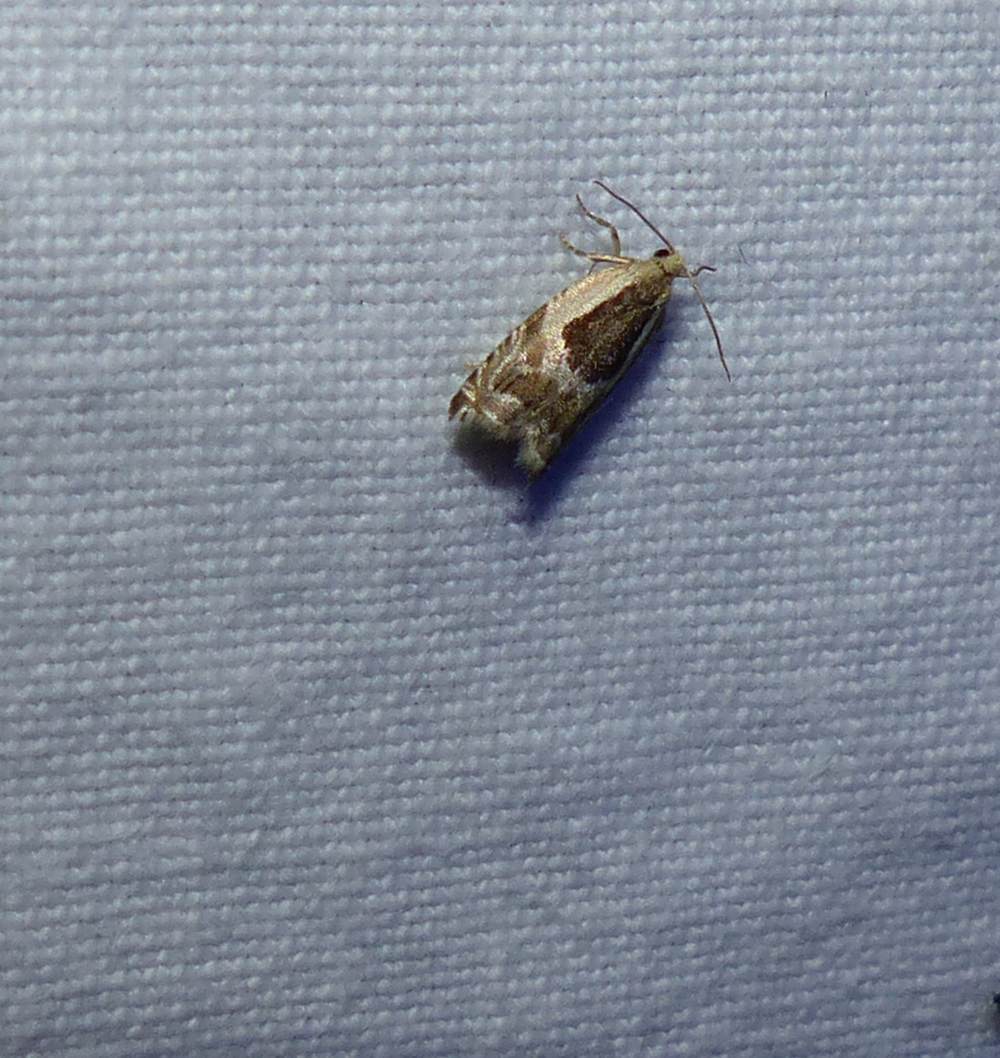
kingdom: Animalia
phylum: Arthropoda
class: Insecta
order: Lepidoptera
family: Tortricidae
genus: Ancylis
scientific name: Ancylis metamelana
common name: Black-marked ancylis moth
